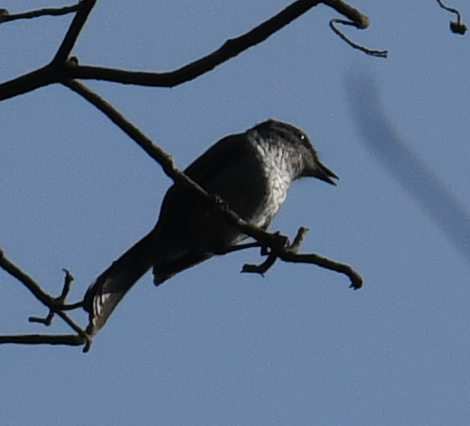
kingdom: Animalia
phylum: Chordata
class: Aves
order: Passeriformes
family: Muscicapidae
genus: Fraseria
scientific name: Fraseria ocreata
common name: Fraser's forest flycatcher
